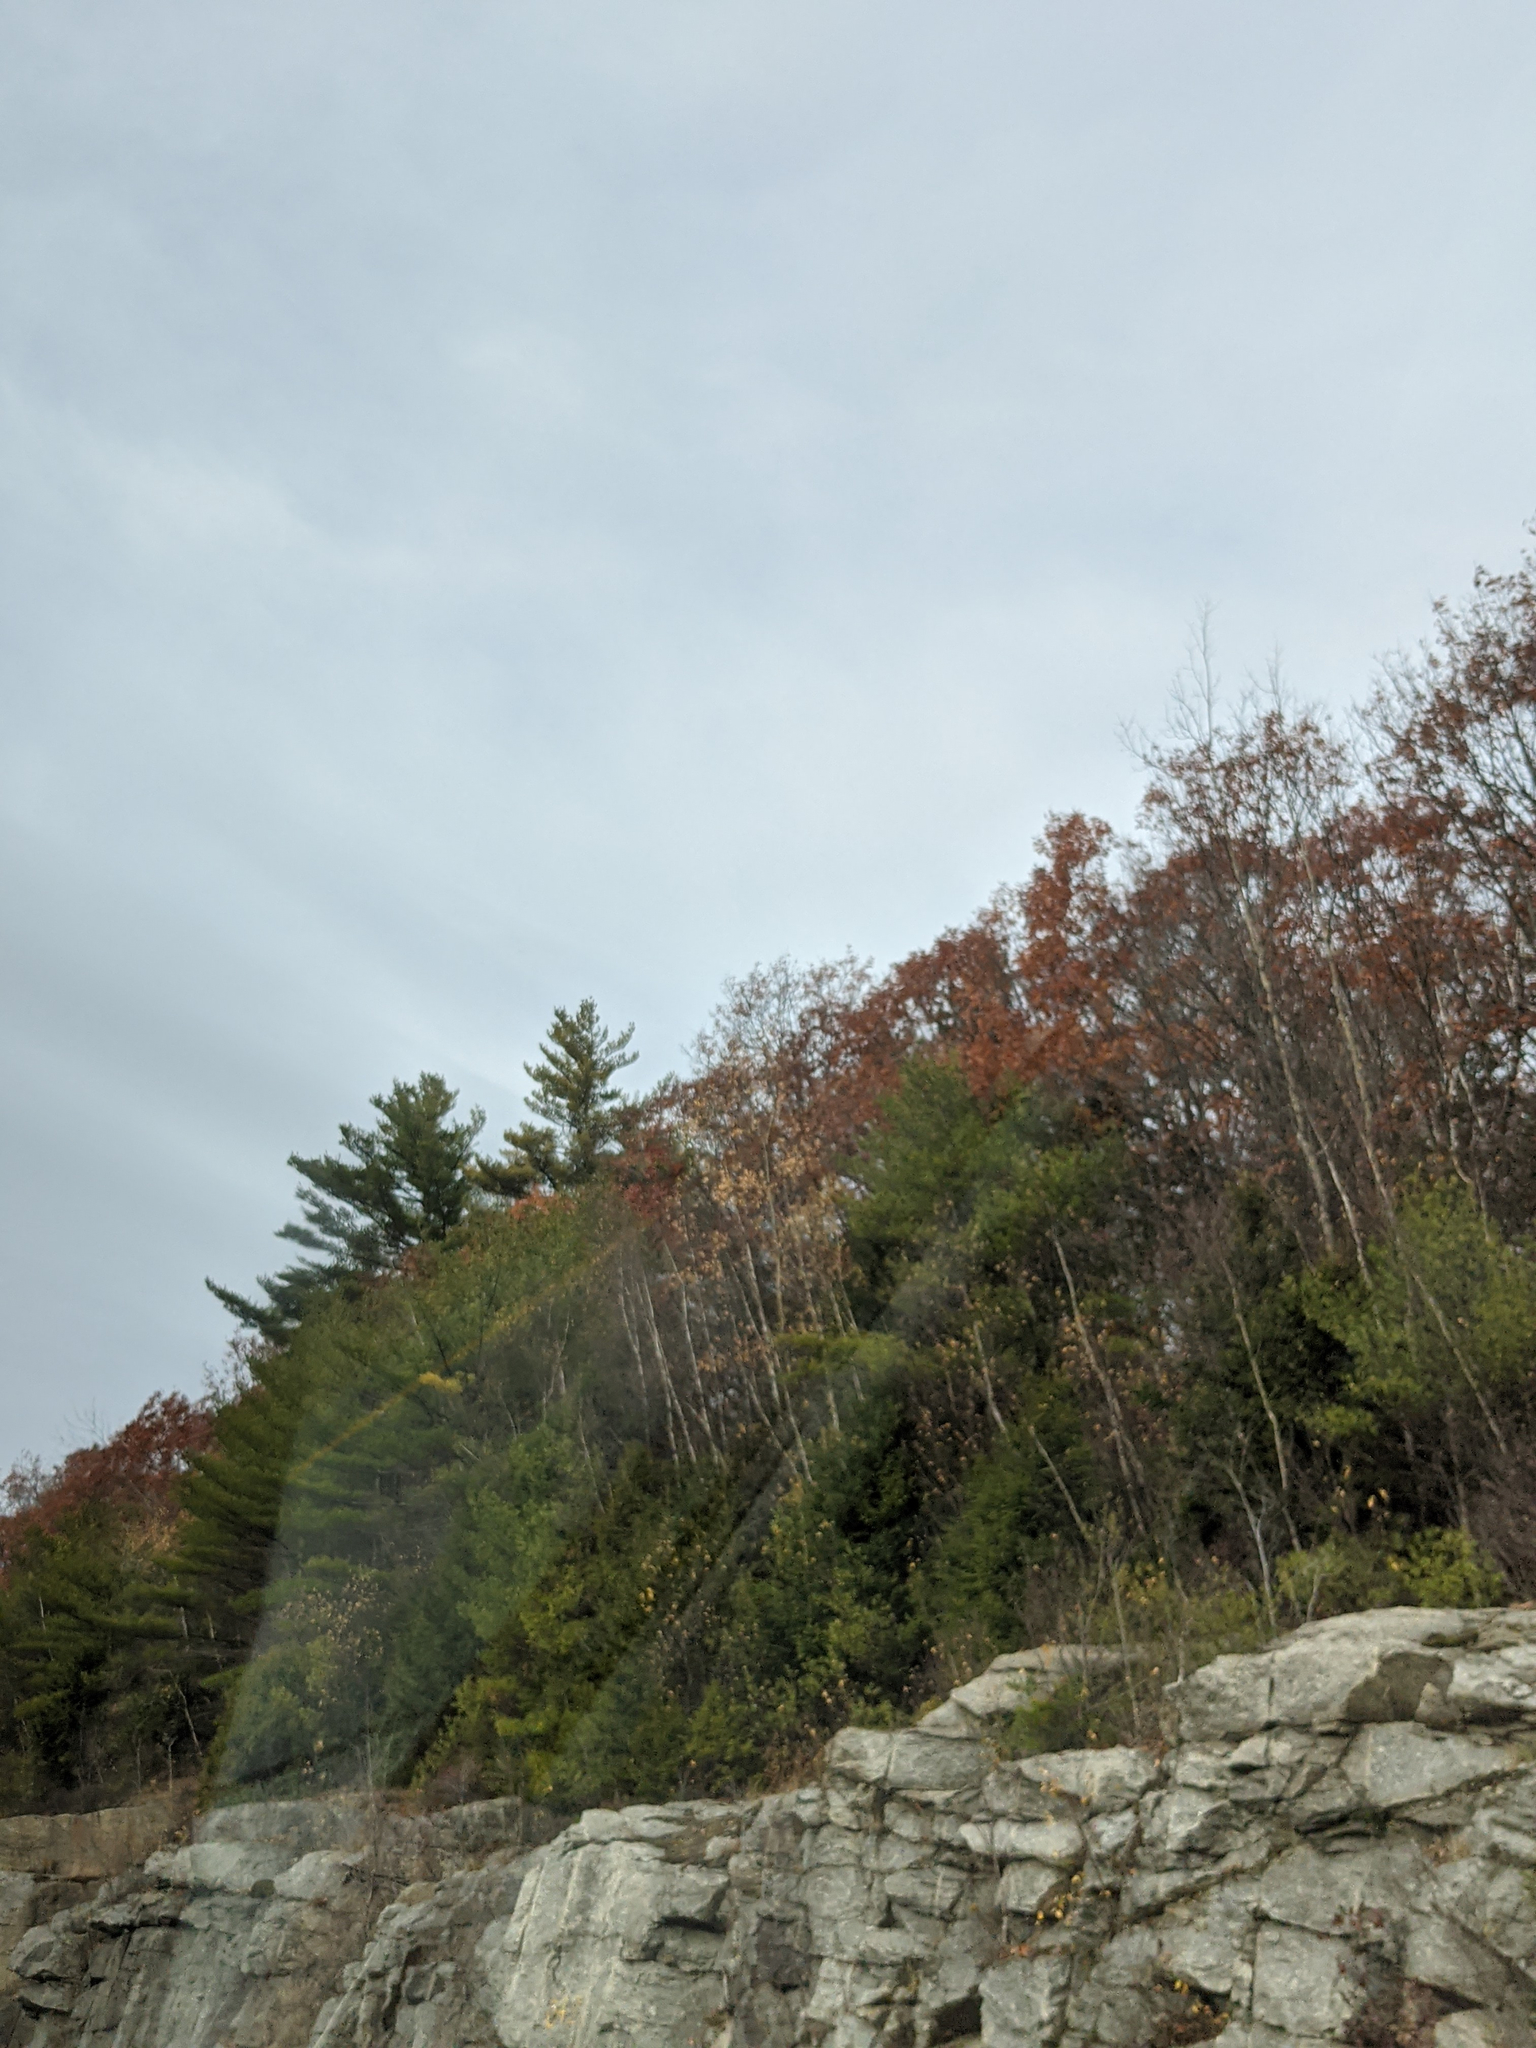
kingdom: Plantae
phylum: Tracheophyta
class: Pinopsida
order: Pinales
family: Pinaceae
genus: Pinus
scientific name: Pinus strobus
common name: Weymouth pine
